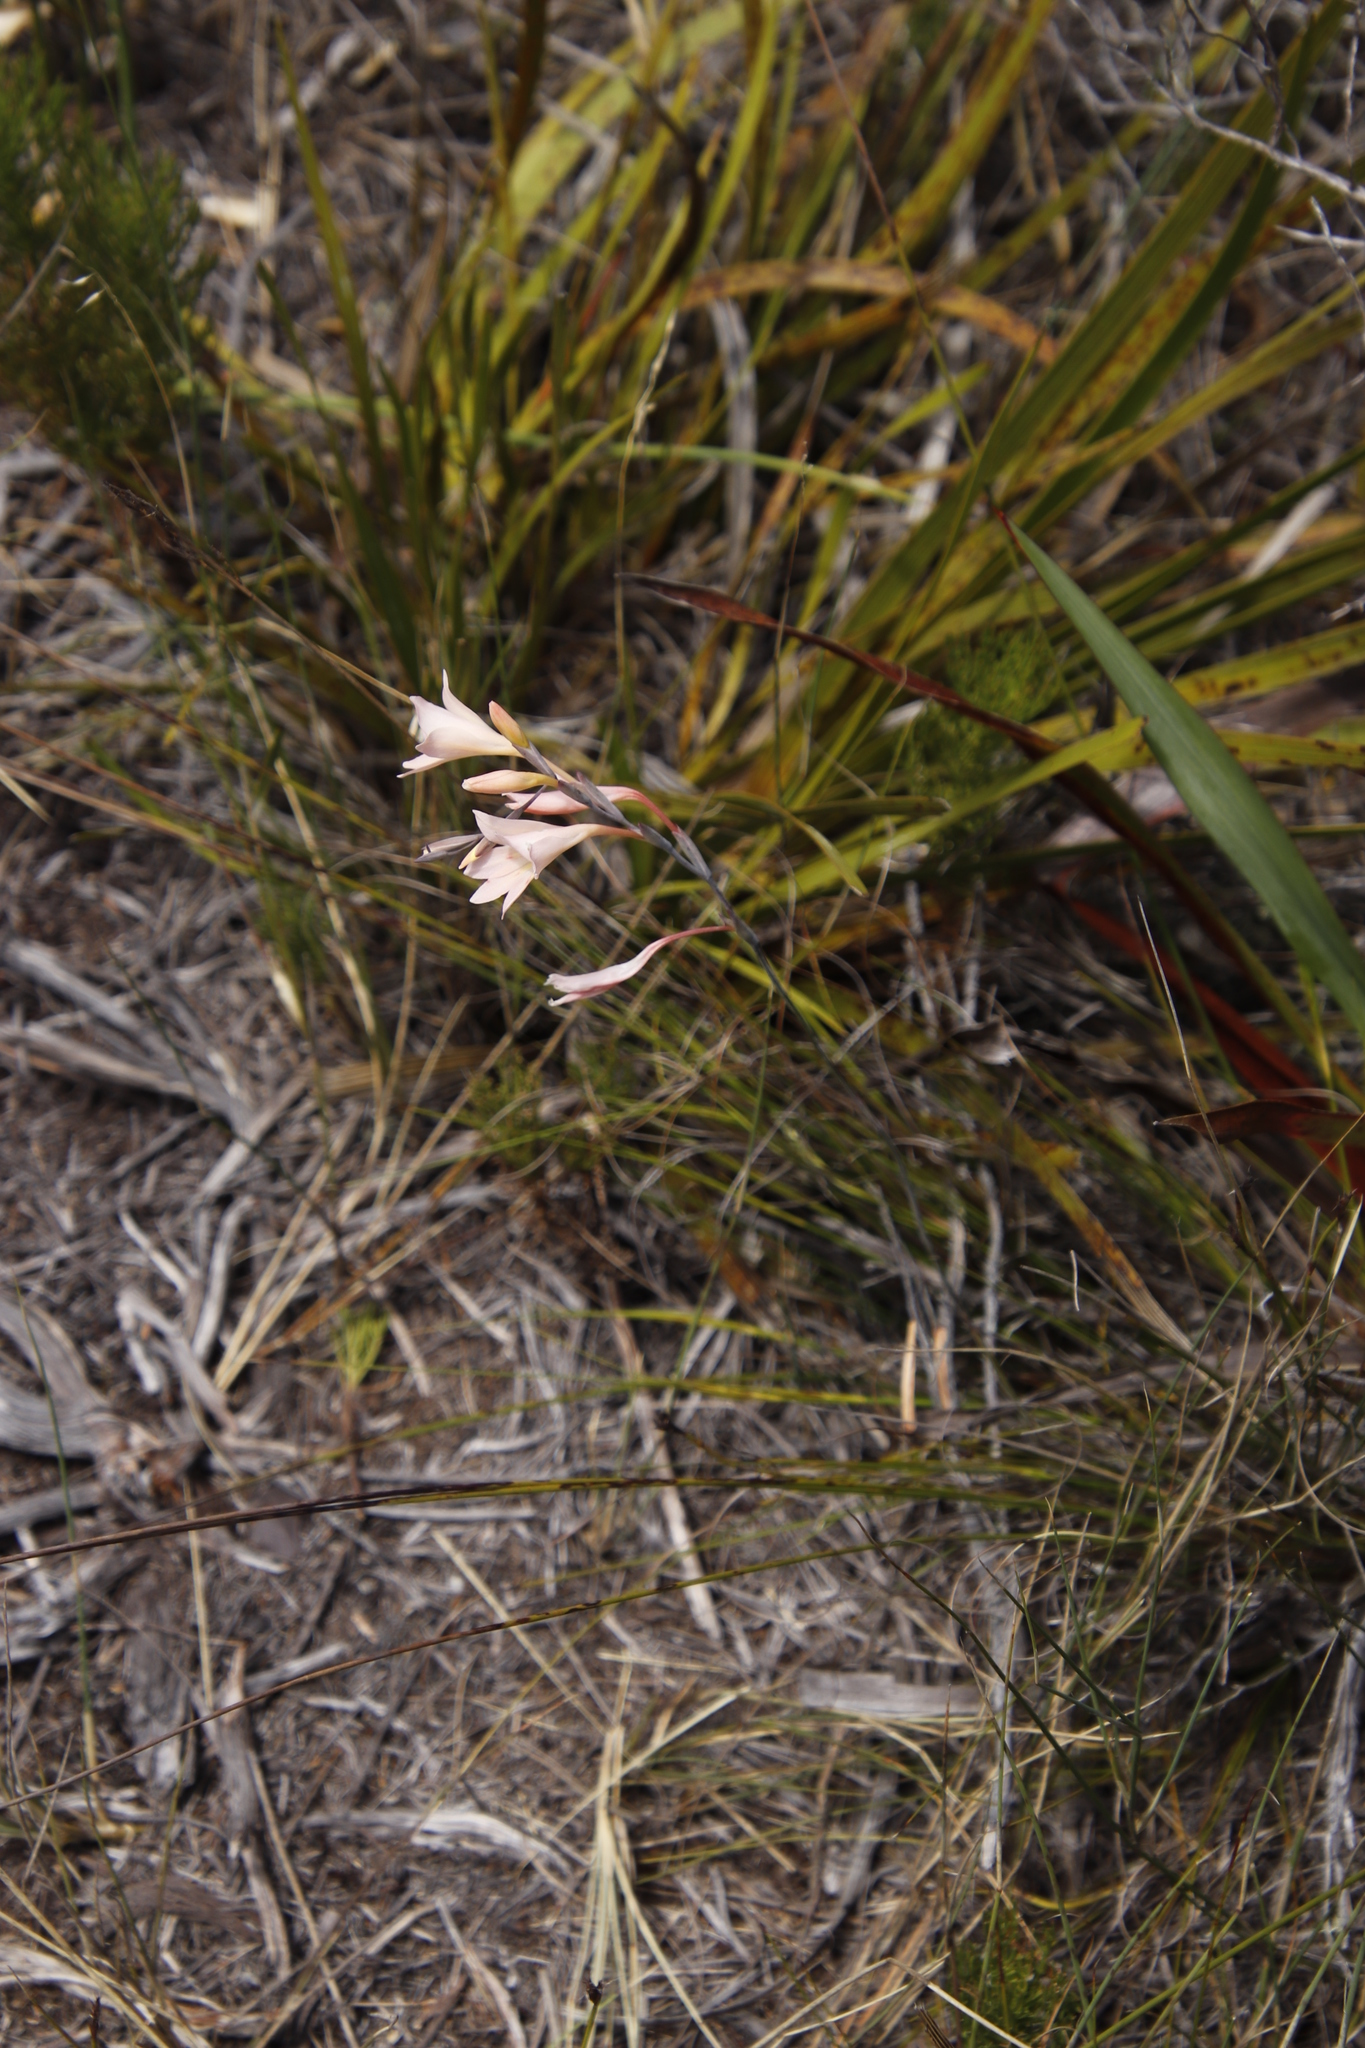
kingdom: Plantae
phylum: Tracheophyta
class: Liliopsida
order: Asparagales
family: Iridaceae
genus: Gladiolus
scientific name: Gladiolus monticola
